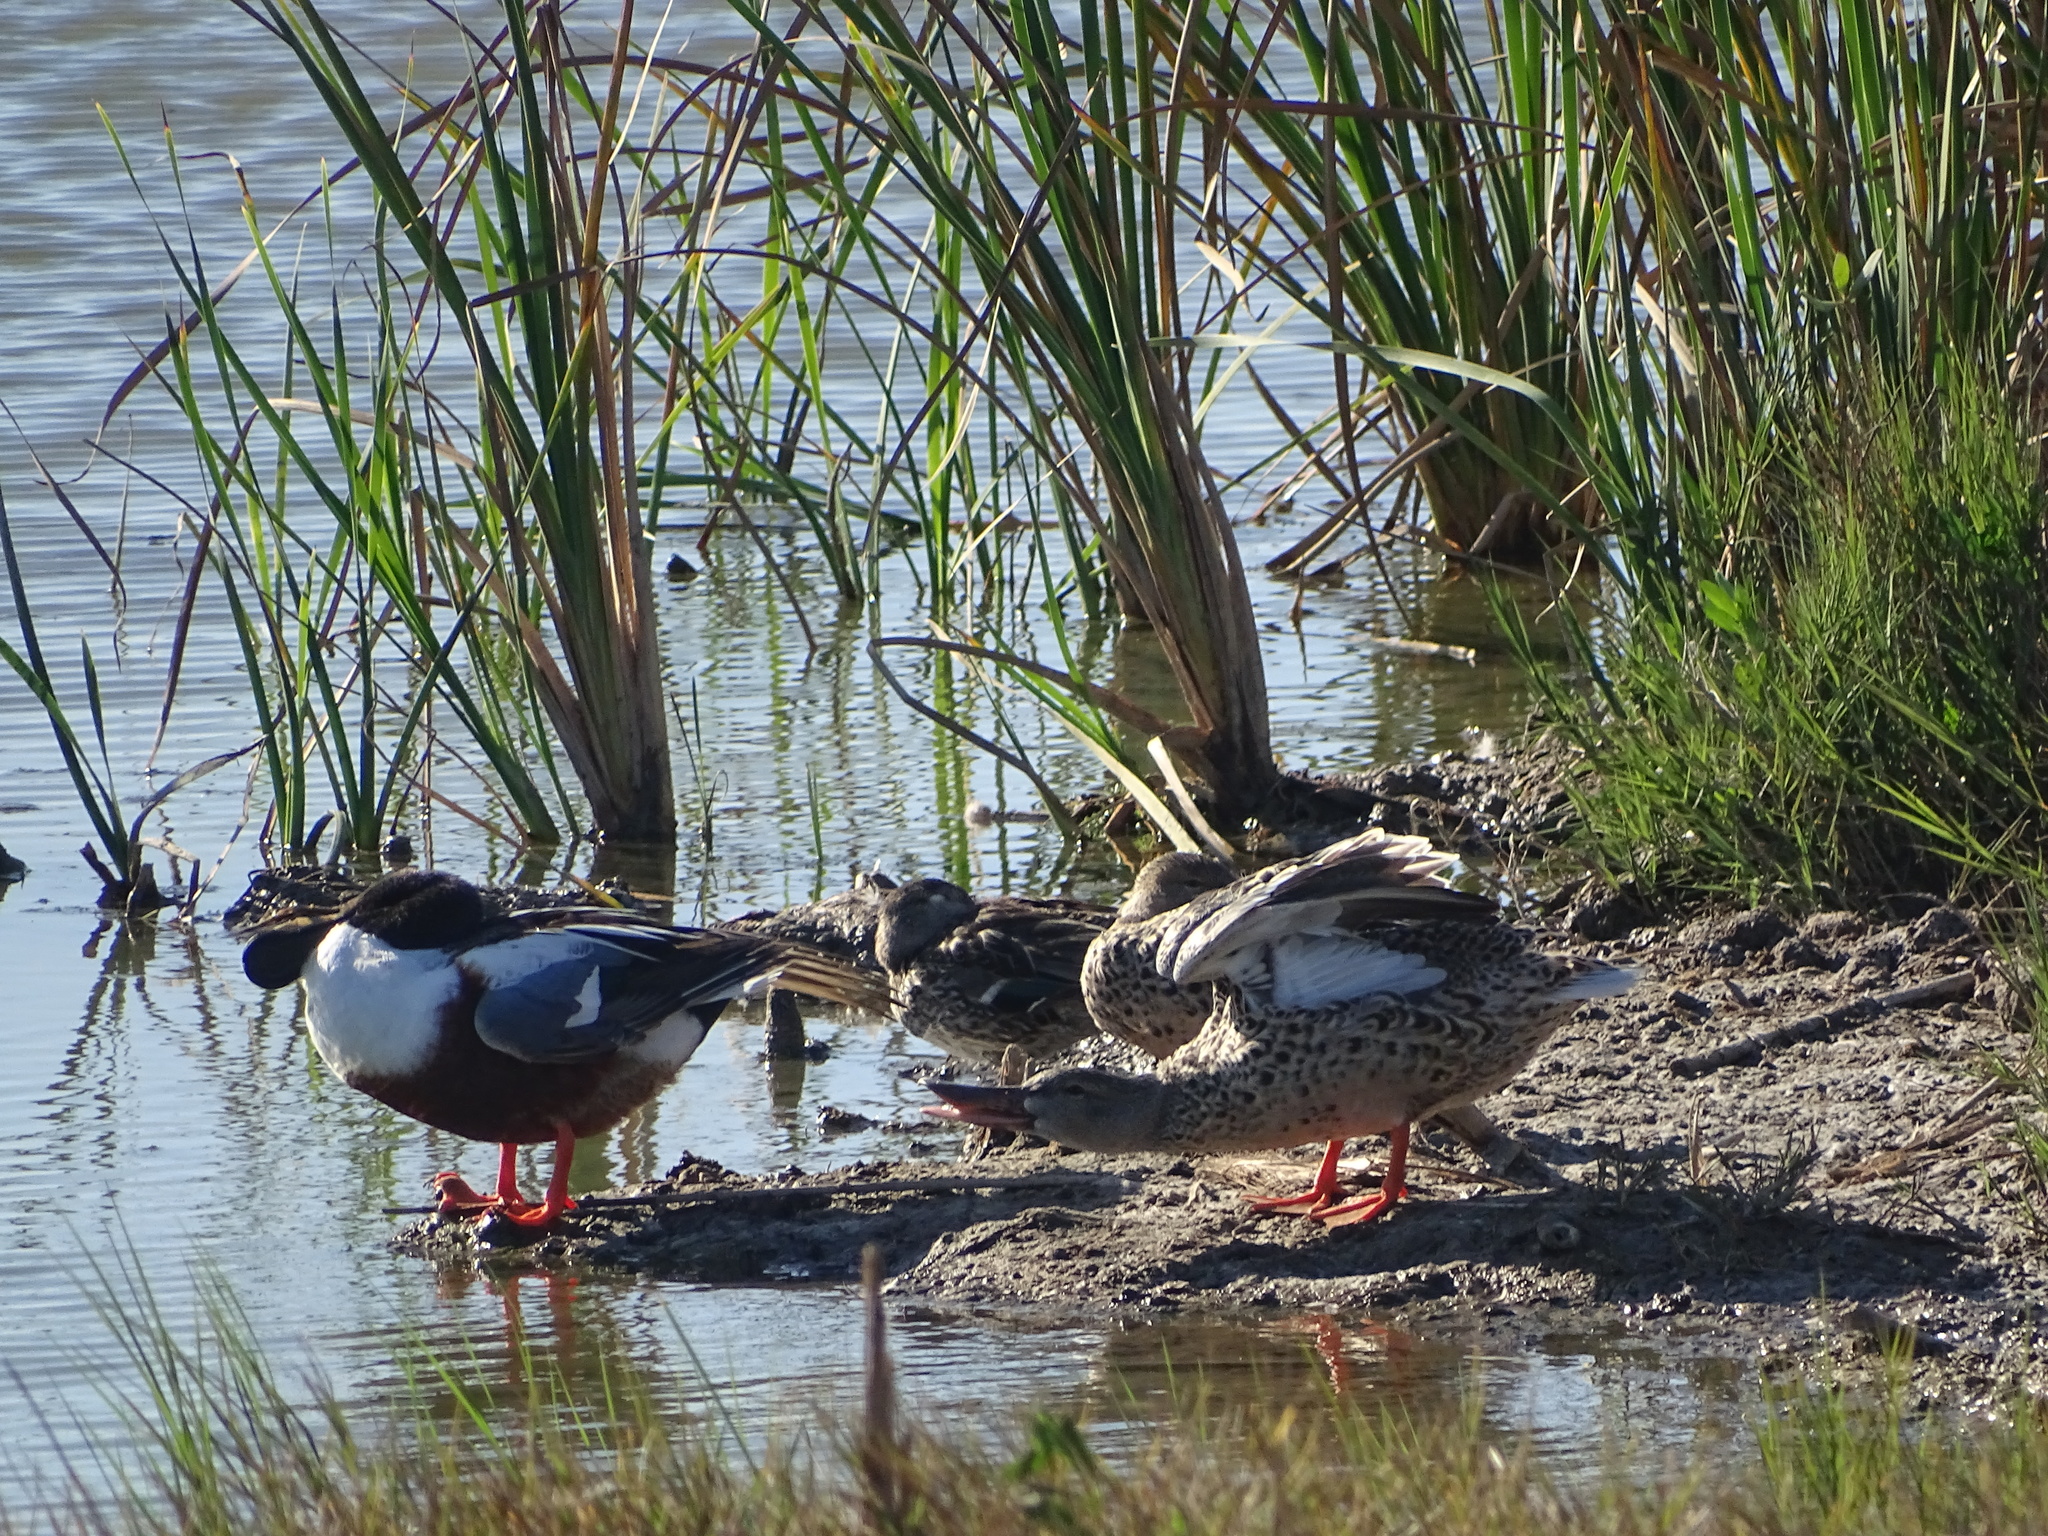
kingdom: Animalia
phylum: Chordata
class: Aves
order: Anseriformes
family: Anatidae
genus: Spatula
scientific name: Spatula clypeata
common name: Northern shoveler
